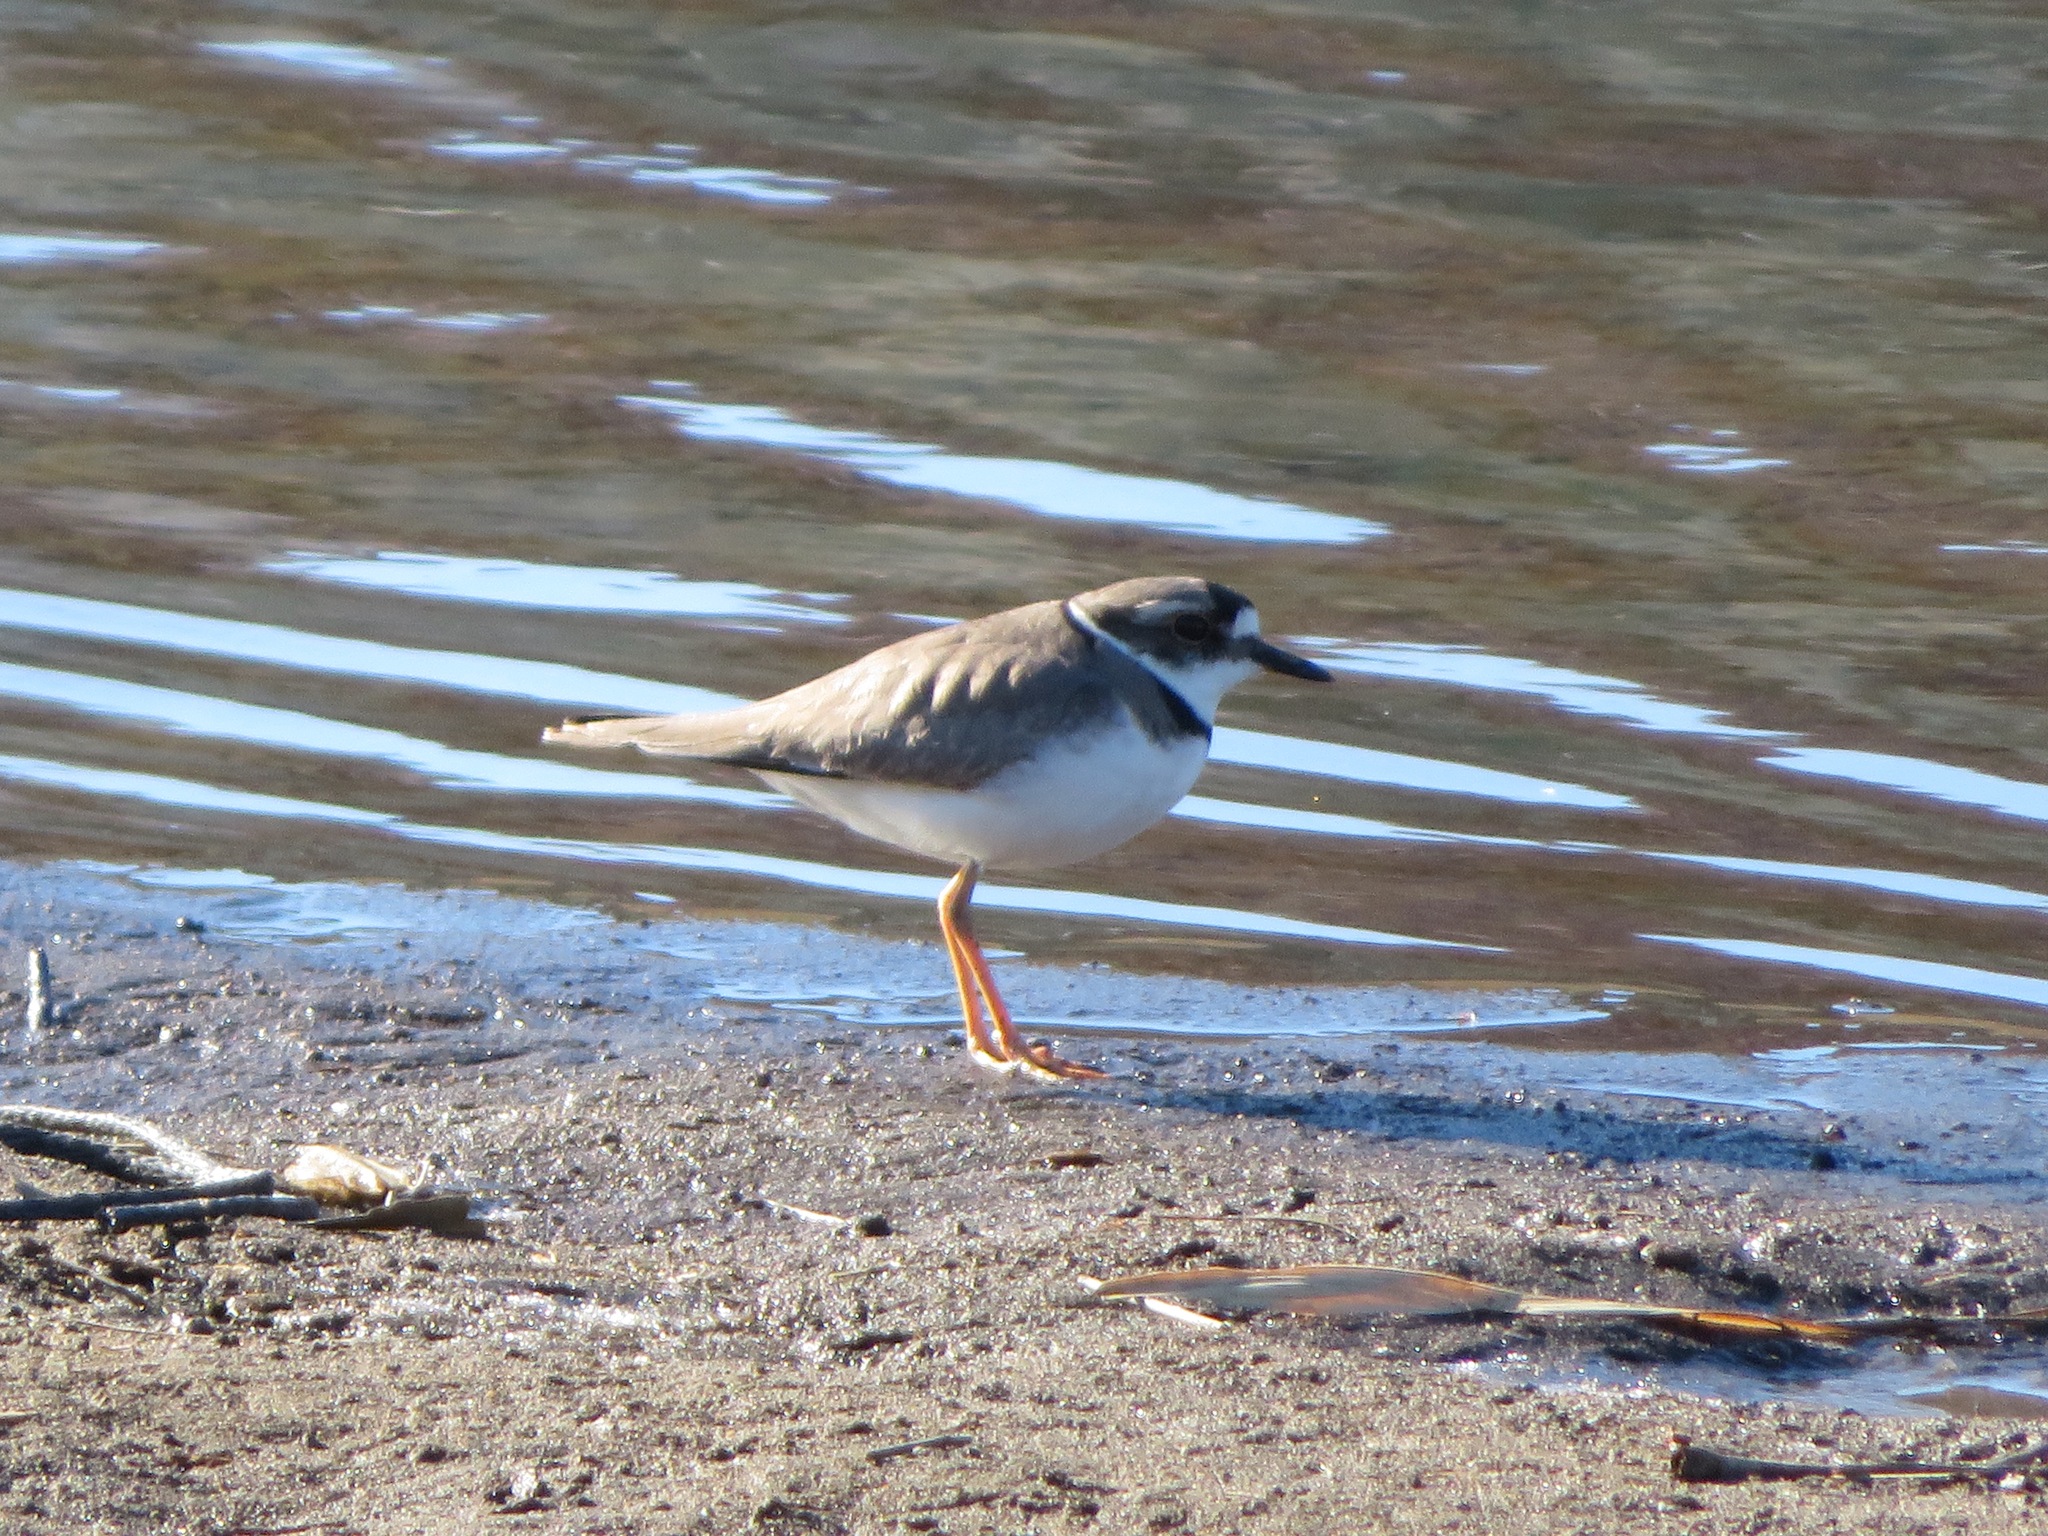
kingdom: Animalia
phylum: Chordata
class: Aves
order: Charadriiformes
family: Charadriidae
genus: Charadrius
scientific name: Charadrius placidus
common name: Long-billed plover
